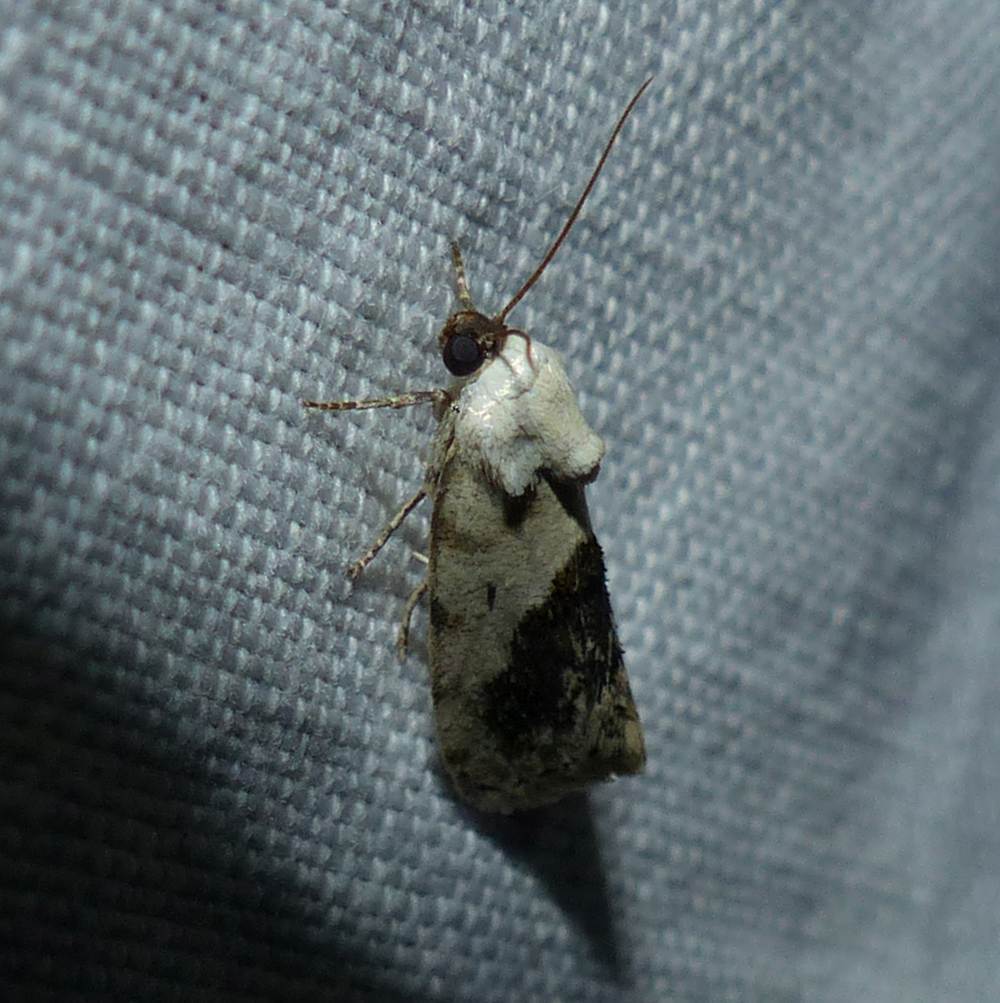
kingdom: Animalia
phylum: Arthropoda
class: Insecta
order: Lepidoptera
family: Noctuidae
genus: Acontia
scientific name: Acontia erastrioides
